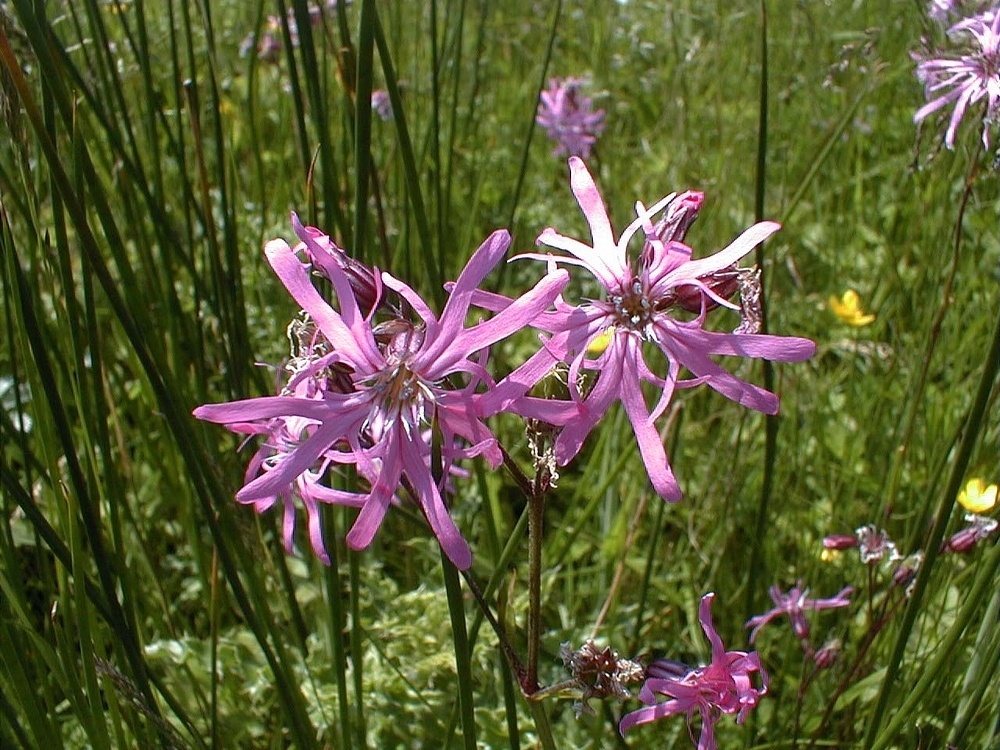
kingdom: Plantae
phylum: Tracheophyta
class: Magnoliopsida
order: Caryophyllales
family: Caryophyllaceae
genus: Silene
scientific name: Silene flos-cuculi
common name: Ragged-robin
